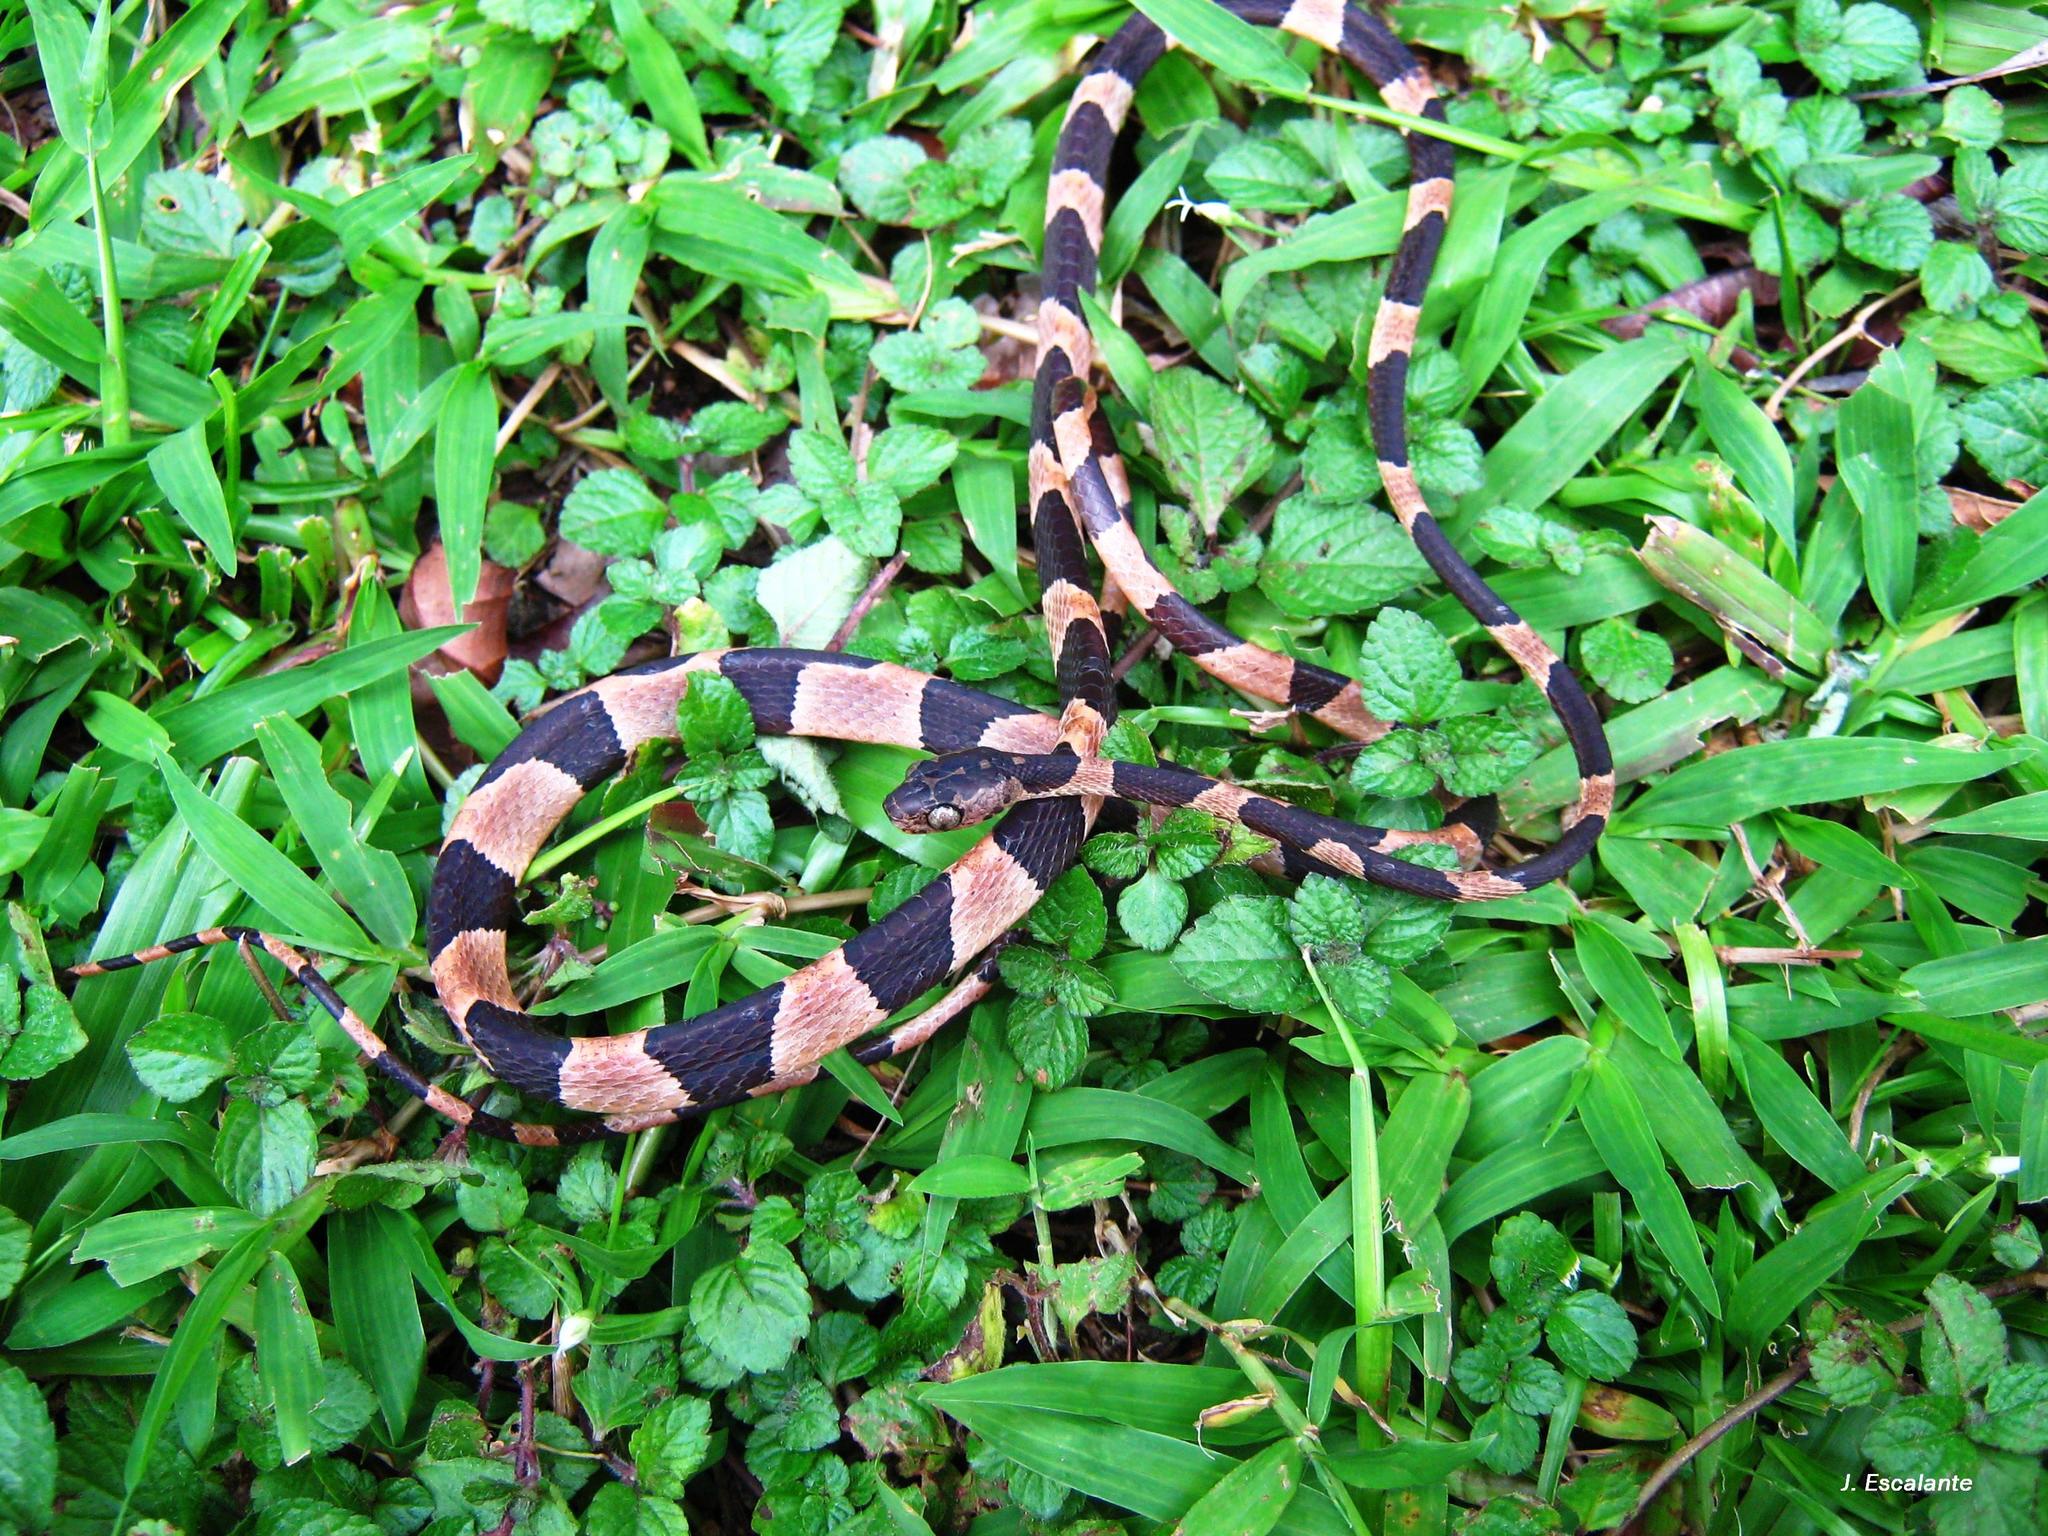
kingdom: Animalia
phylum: Chordata
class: Squamata
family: Colubridae
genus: Imantodes
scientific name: Imantodes cenchoa
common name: Blunthead tree snake
